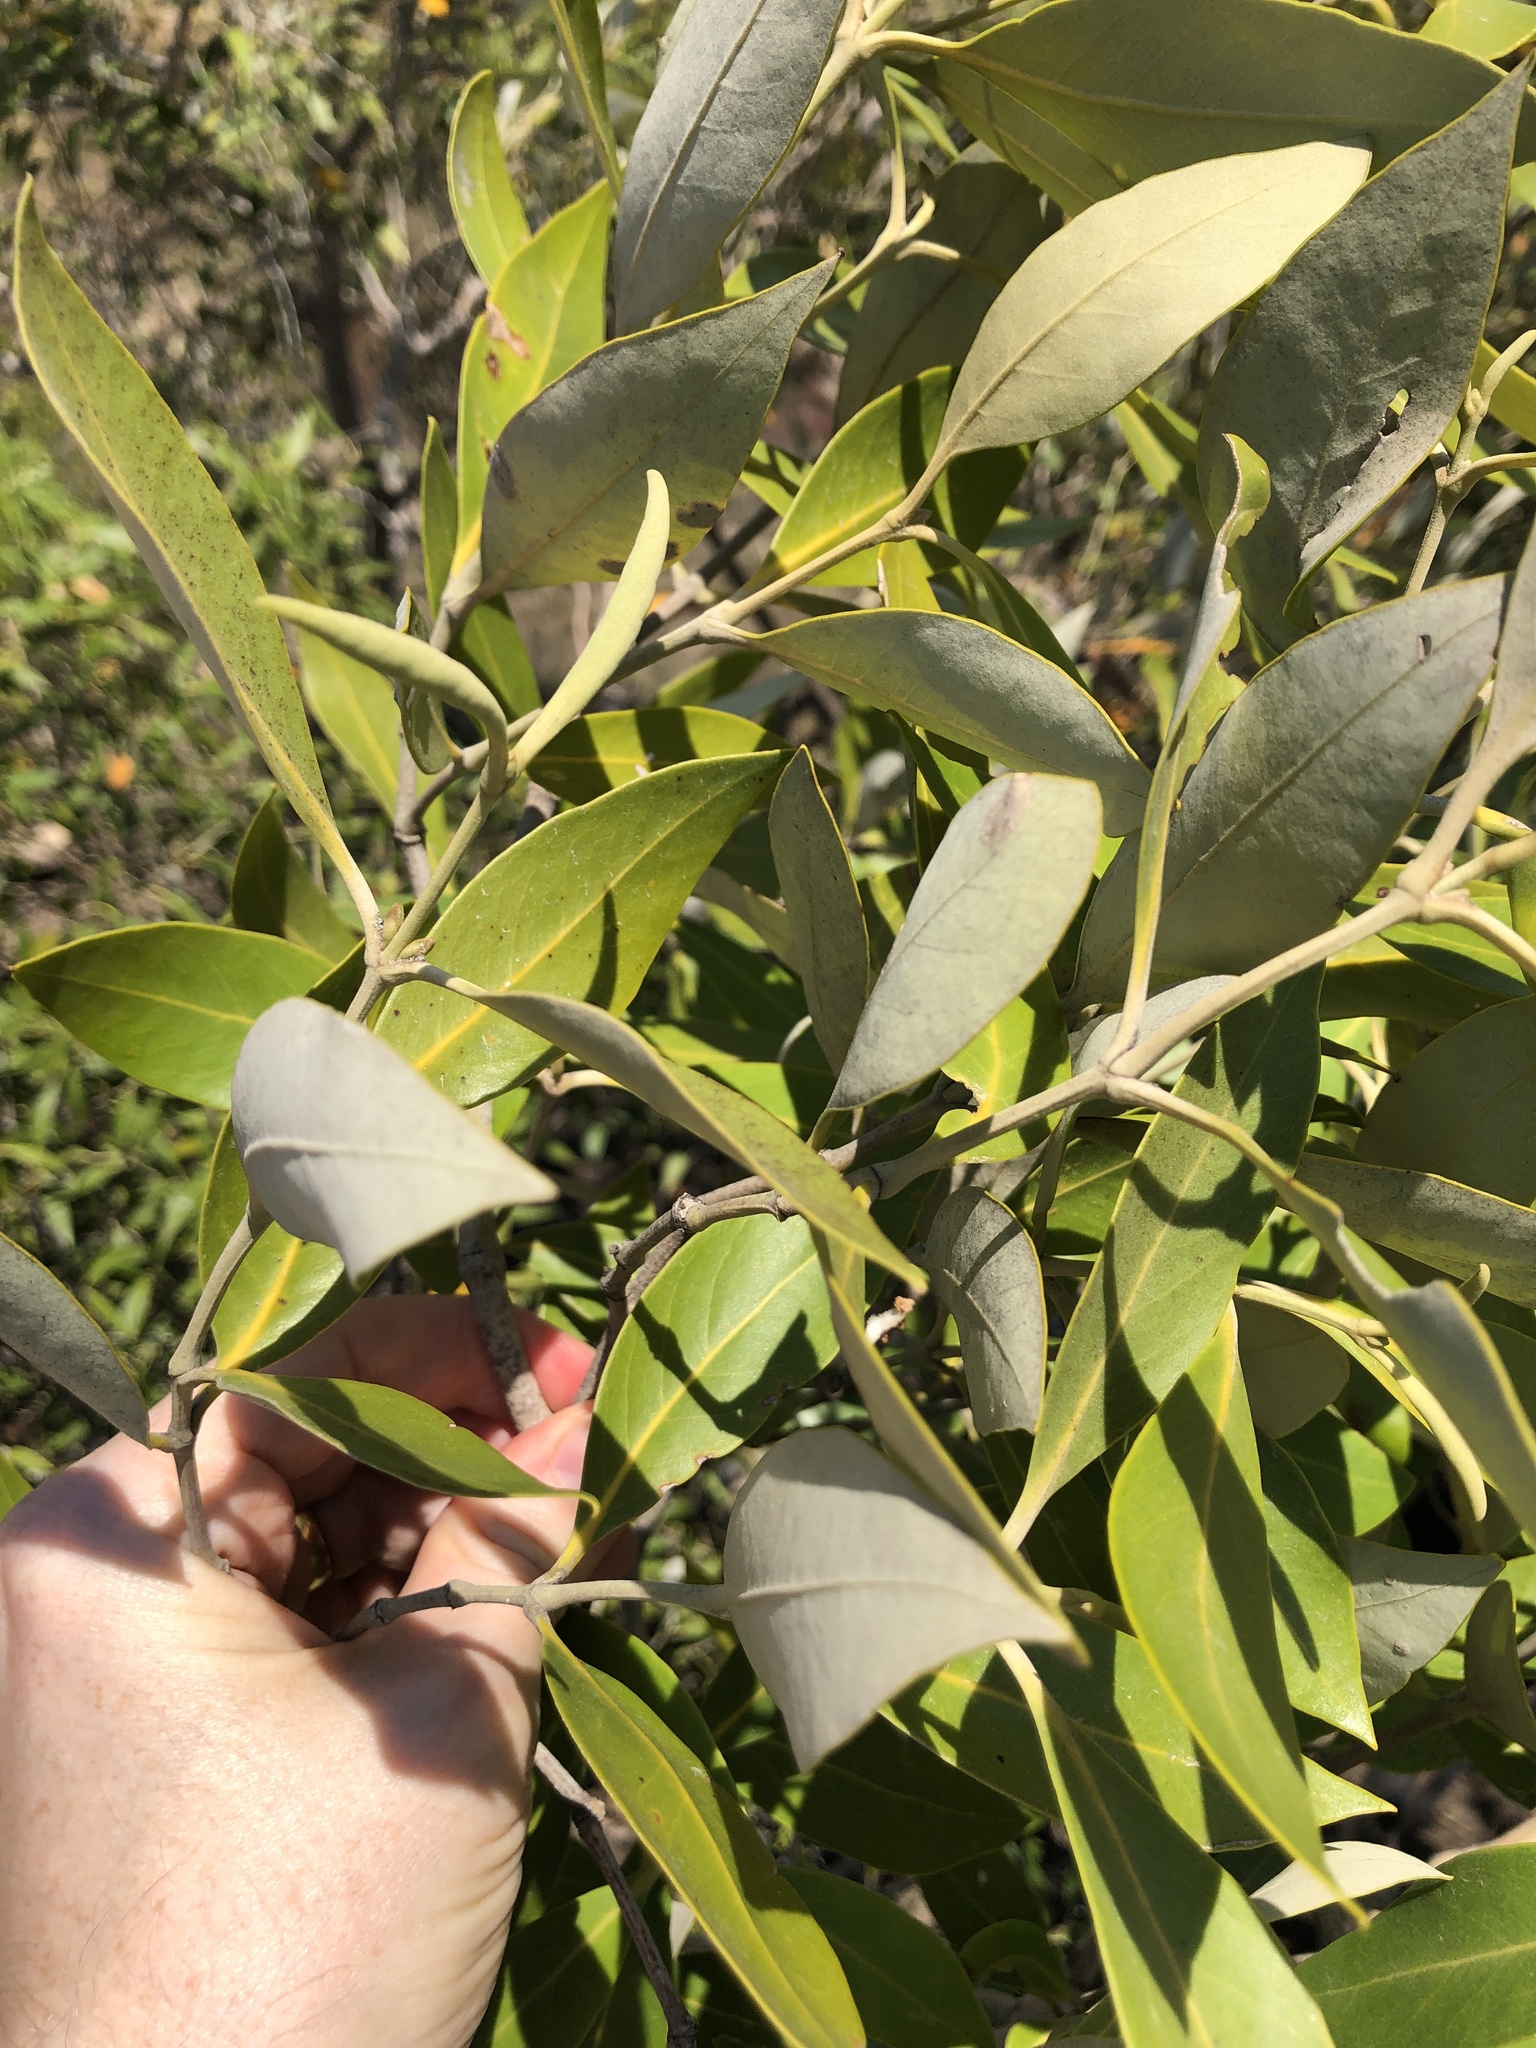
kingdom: Plantae
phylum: Tracheophyta
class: Magnoliopsida
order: Lamiales
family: Acanthaceae
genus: Avicennia
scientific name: Avicennia marina
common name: Gray mangrove
